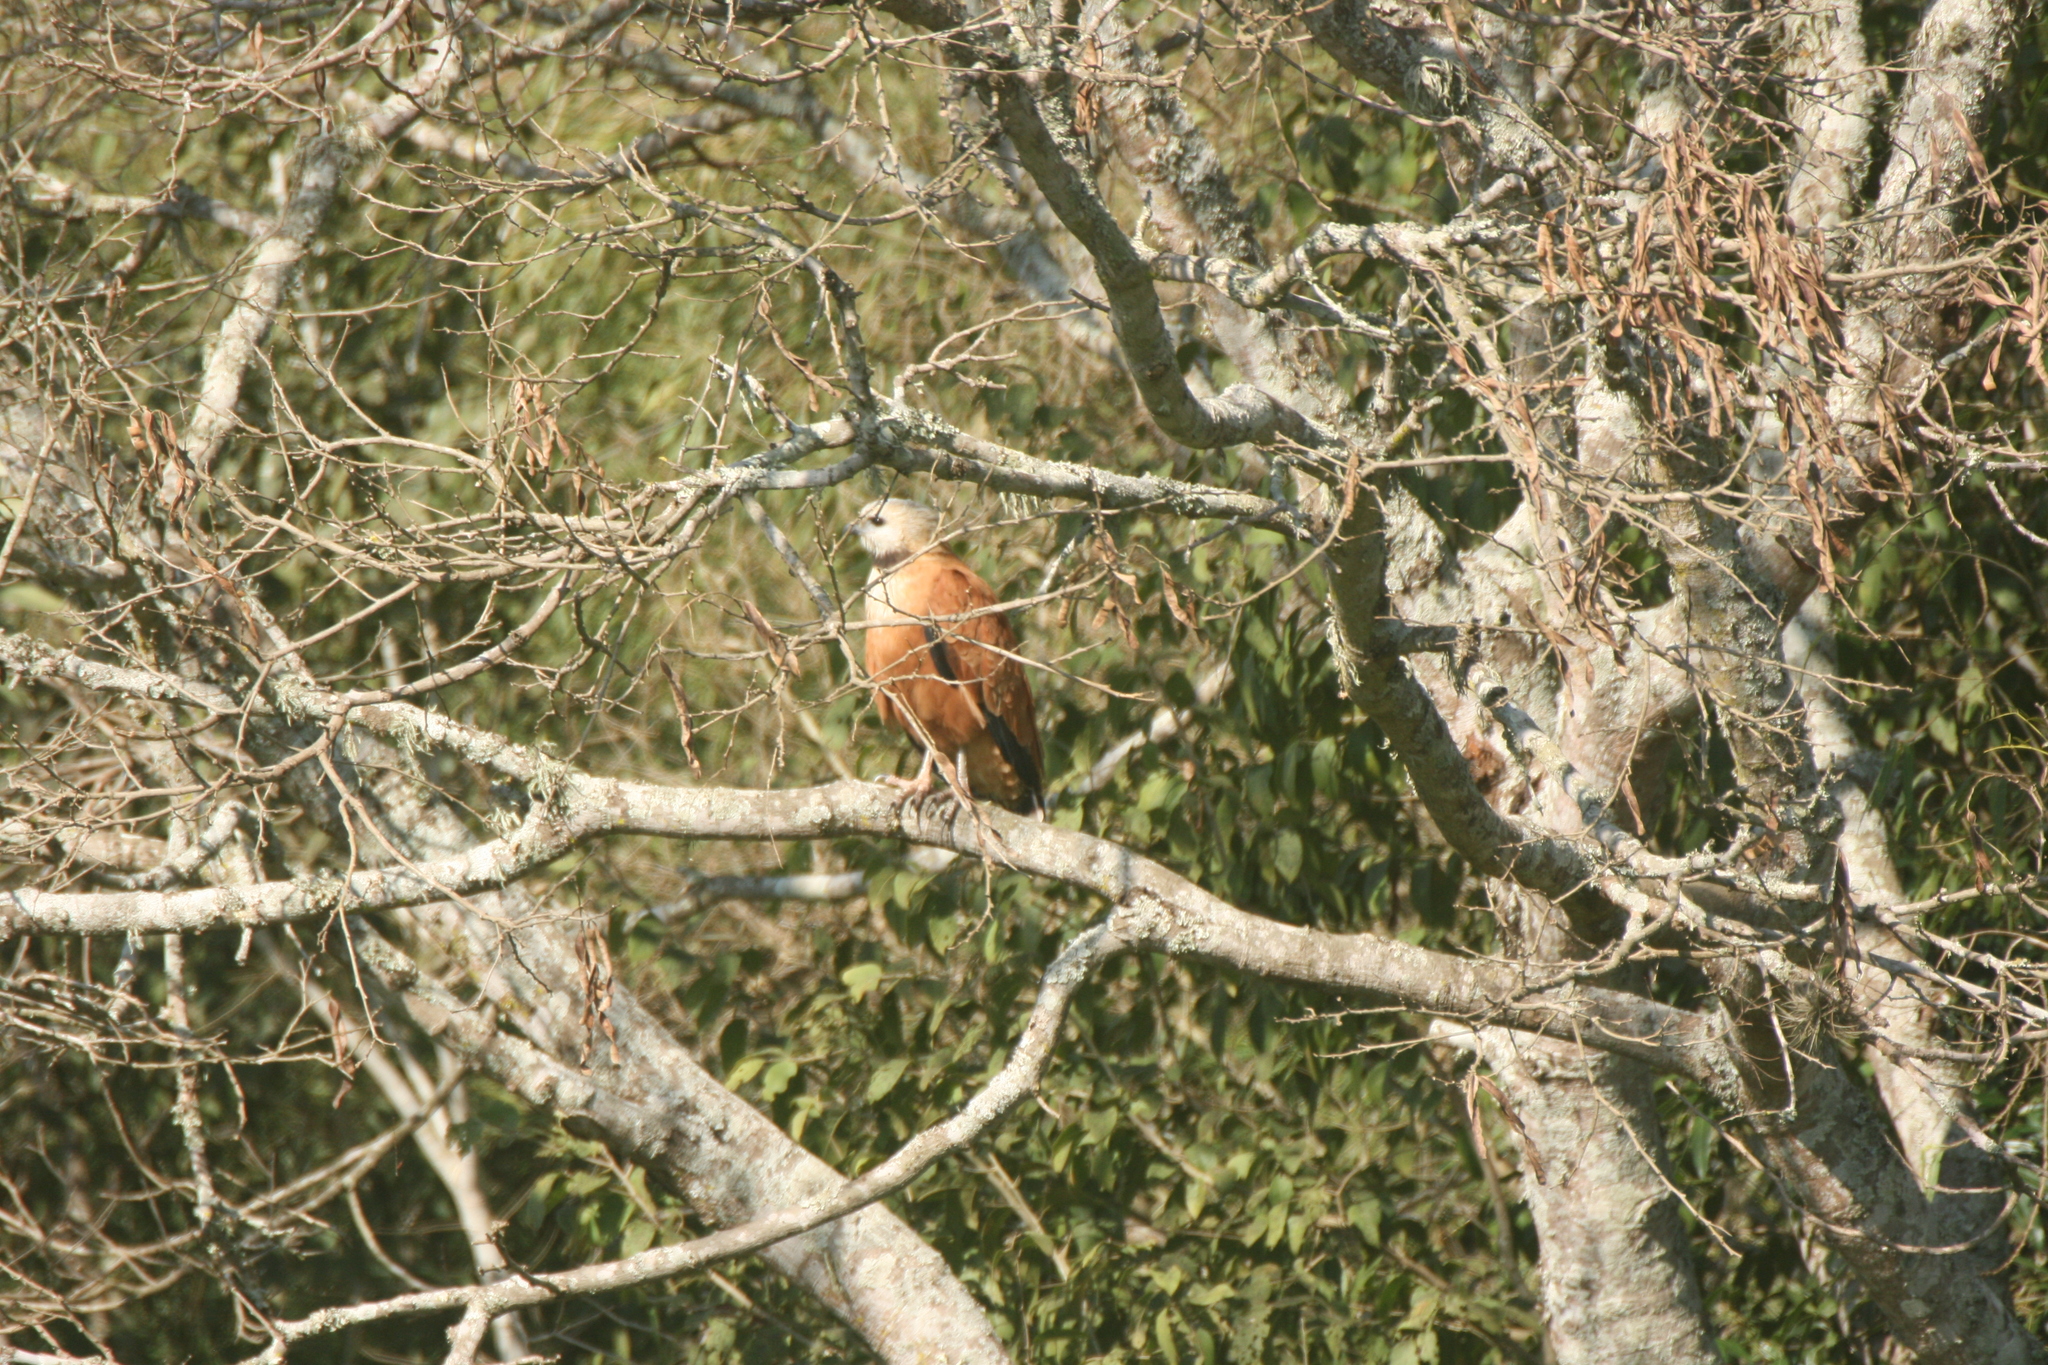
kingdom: Animalia
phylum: Chordata
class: Aves
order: Accipitriformes
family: Accipitridae
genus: Busarellus
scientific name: Busarellus nigricollis
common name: Black-collared hawk
